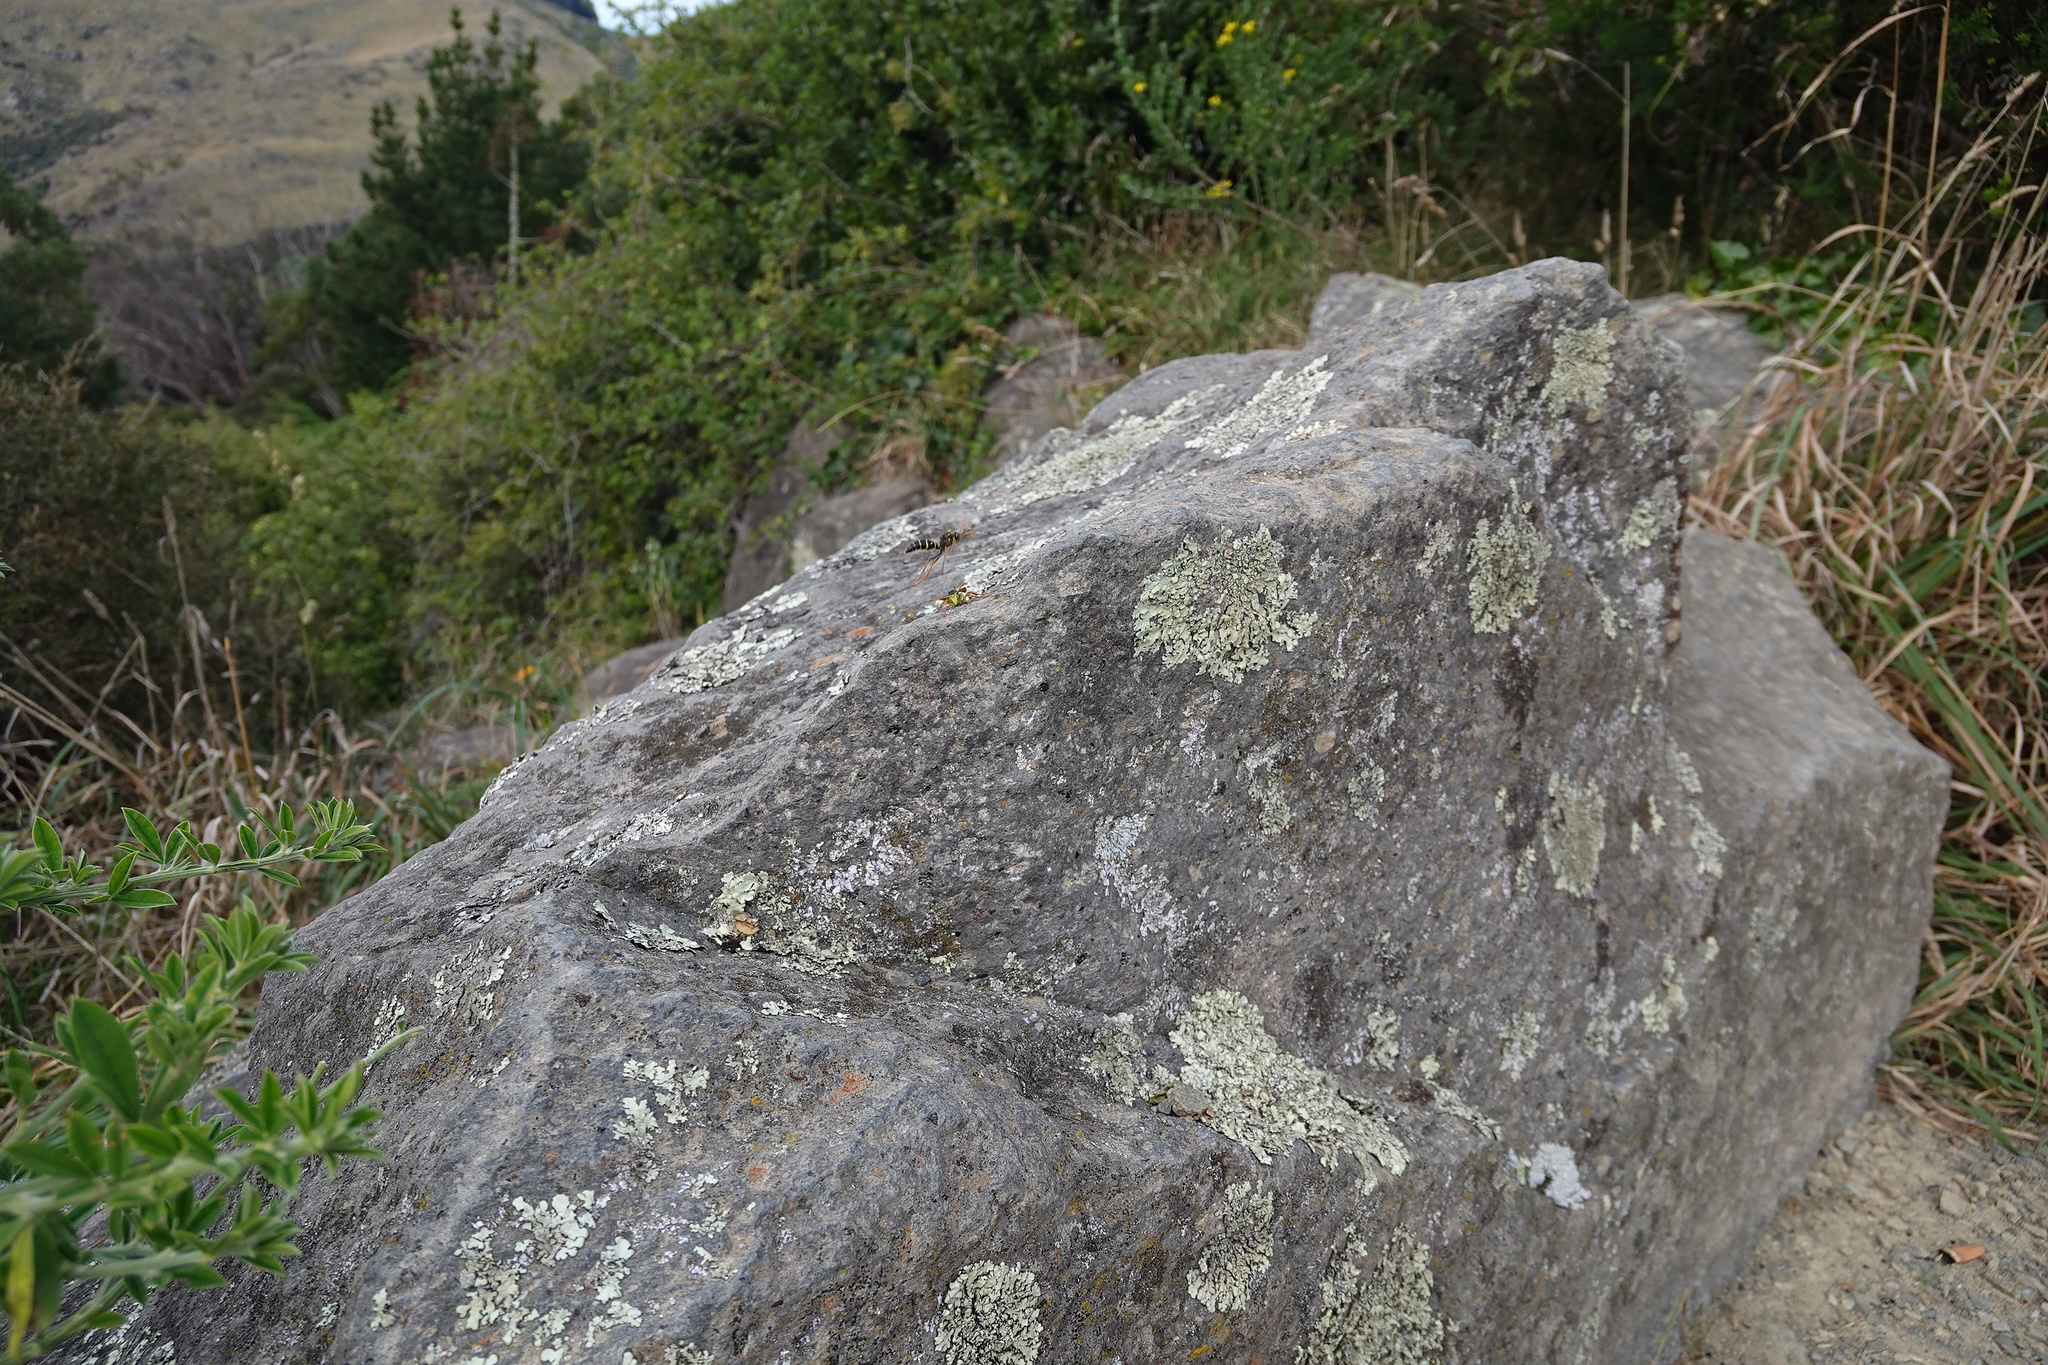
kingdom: Animalia
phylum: Arthropoda
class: Insecta
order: Hymenoptera
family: Eumenidae
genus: Polistes
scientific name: Polistes chinensis
